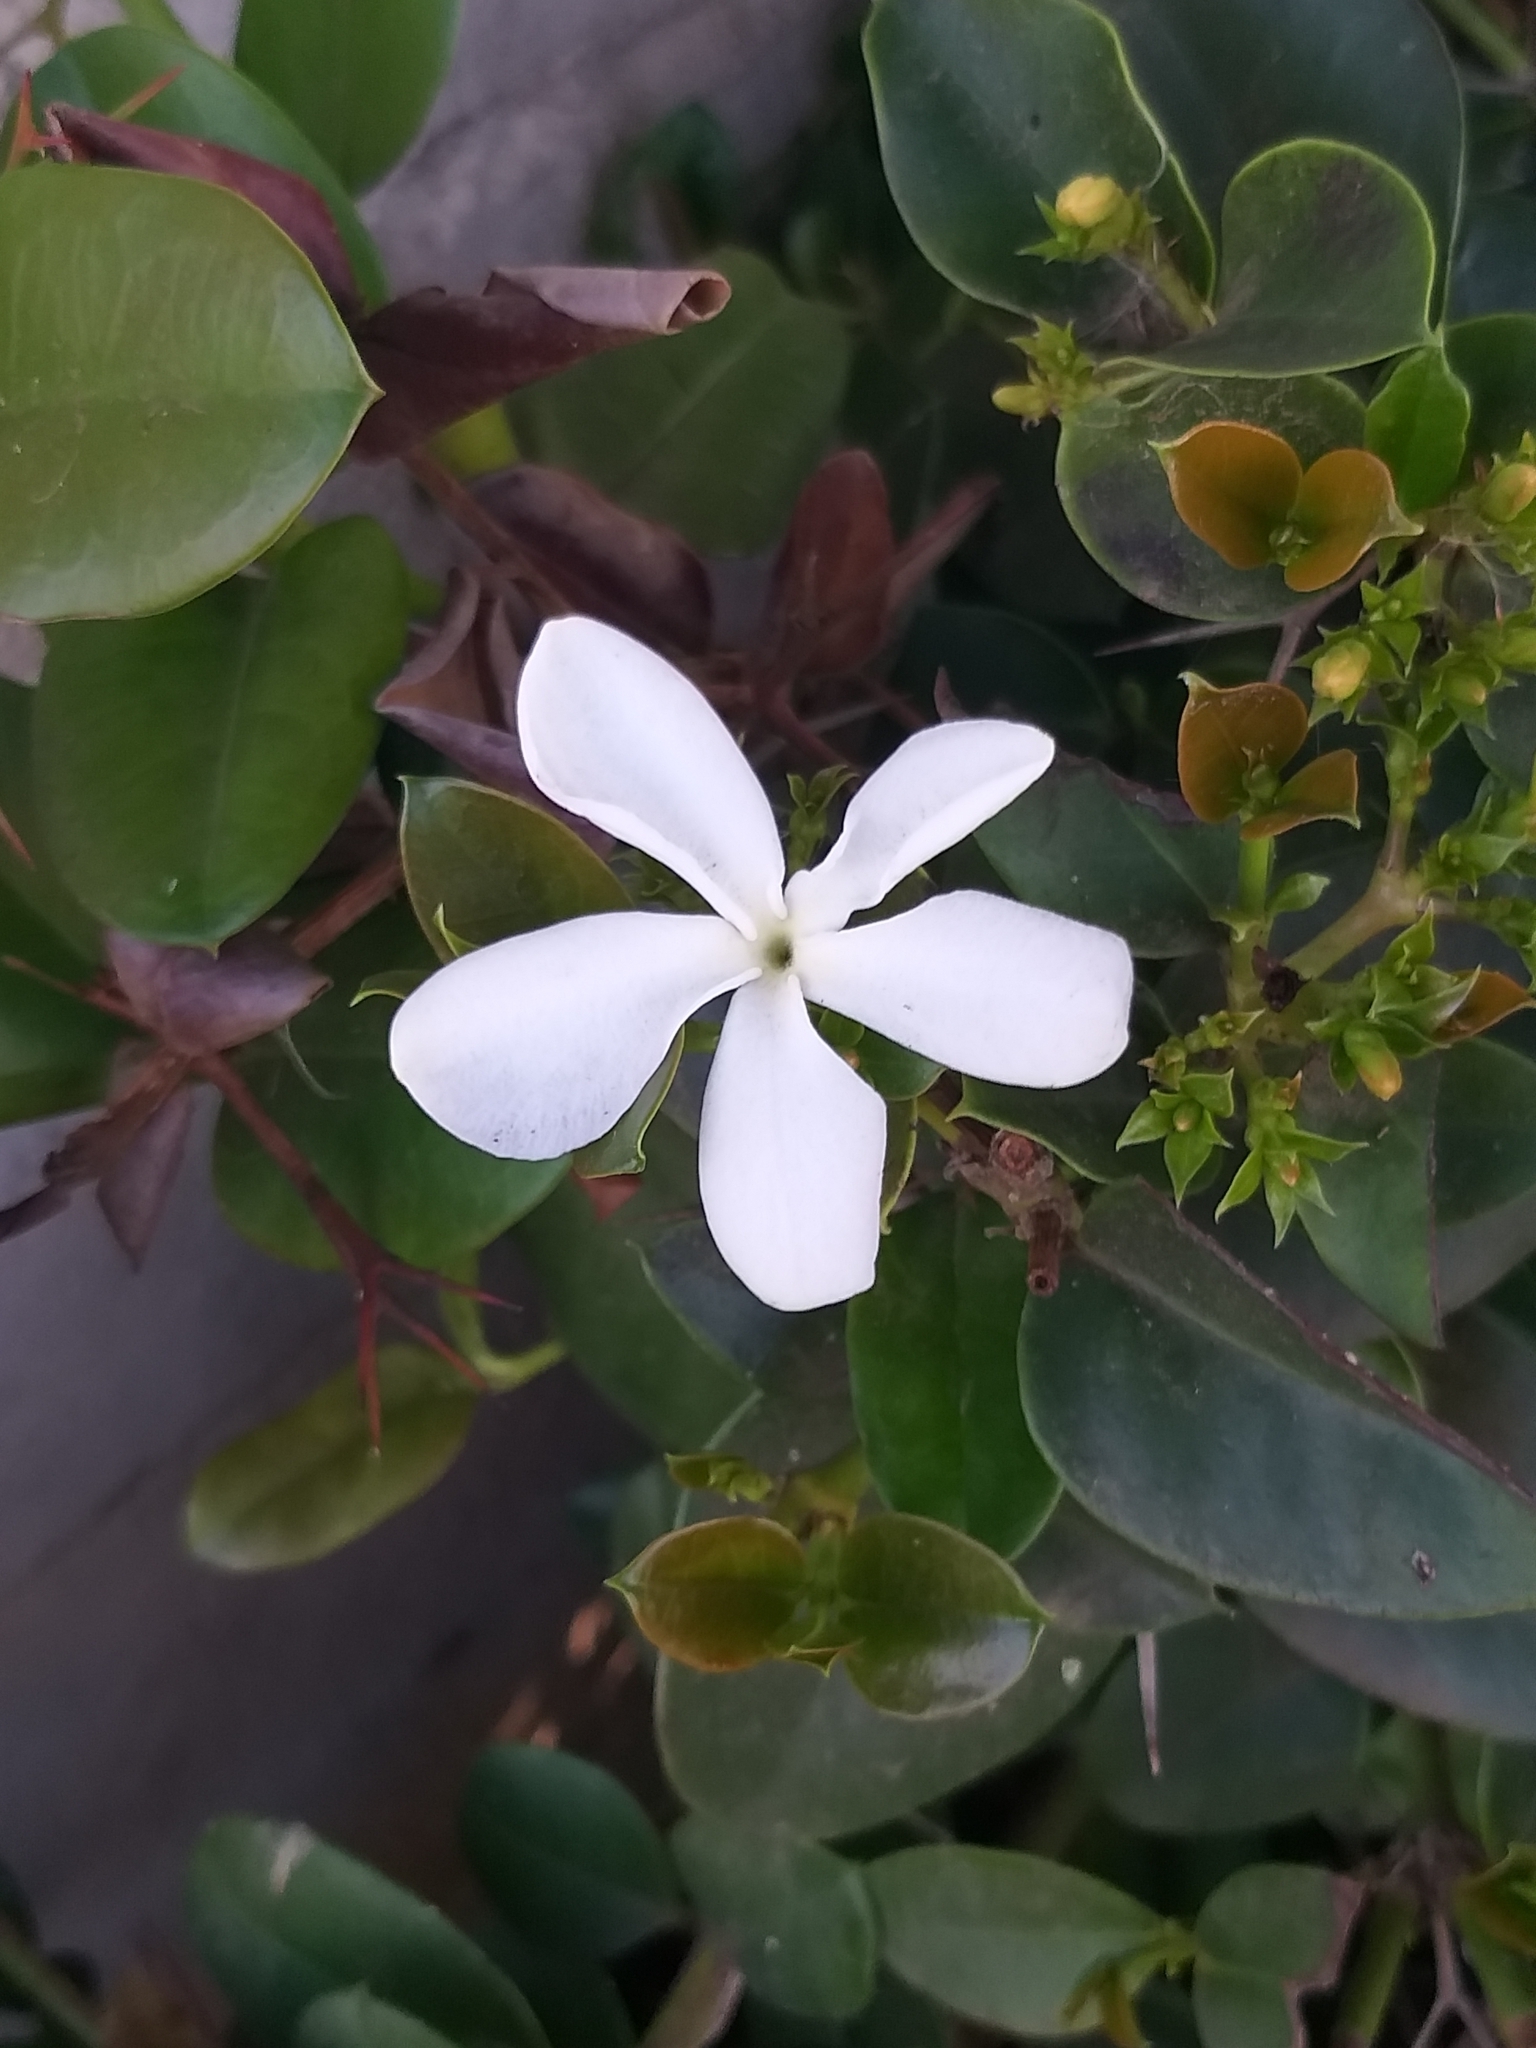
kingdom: Plantae
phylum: Tracheophyta
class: Magnoliopsida
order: Gentianales
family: Apocynaceae
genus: Carissa
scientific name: Carissa macrocarpa
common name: Natal plum
